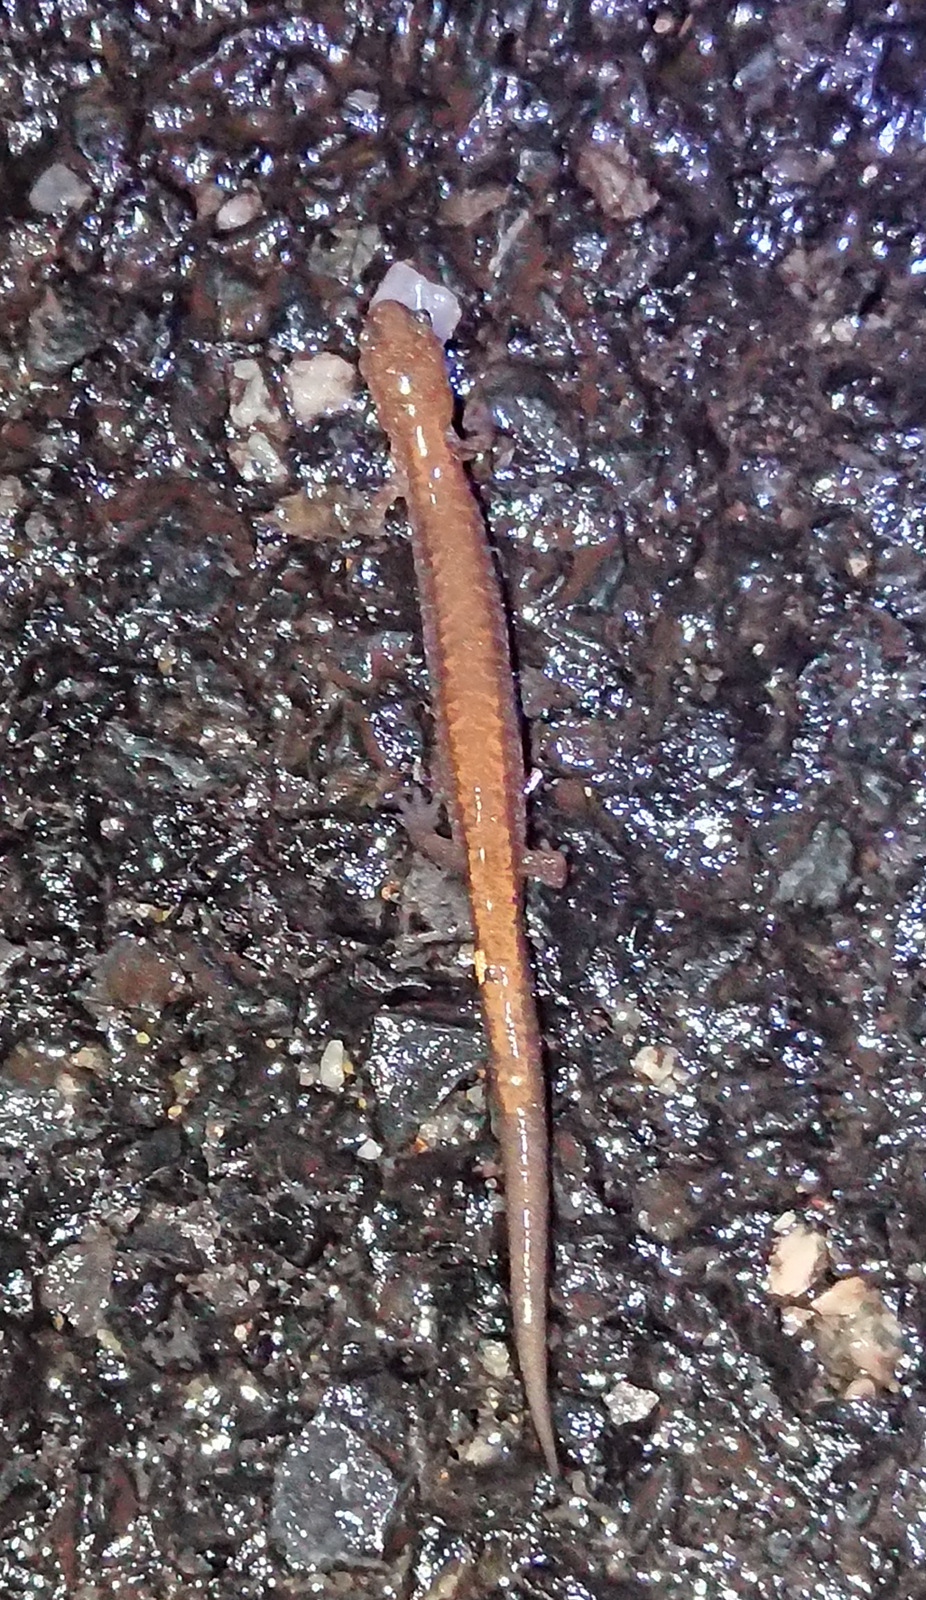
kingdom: Animalia
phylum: Chordata
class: Amphibia
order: Caudata
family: Plethodontidae
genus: Plethodon
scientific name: Plethodon cinereus
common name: Redback salamander
